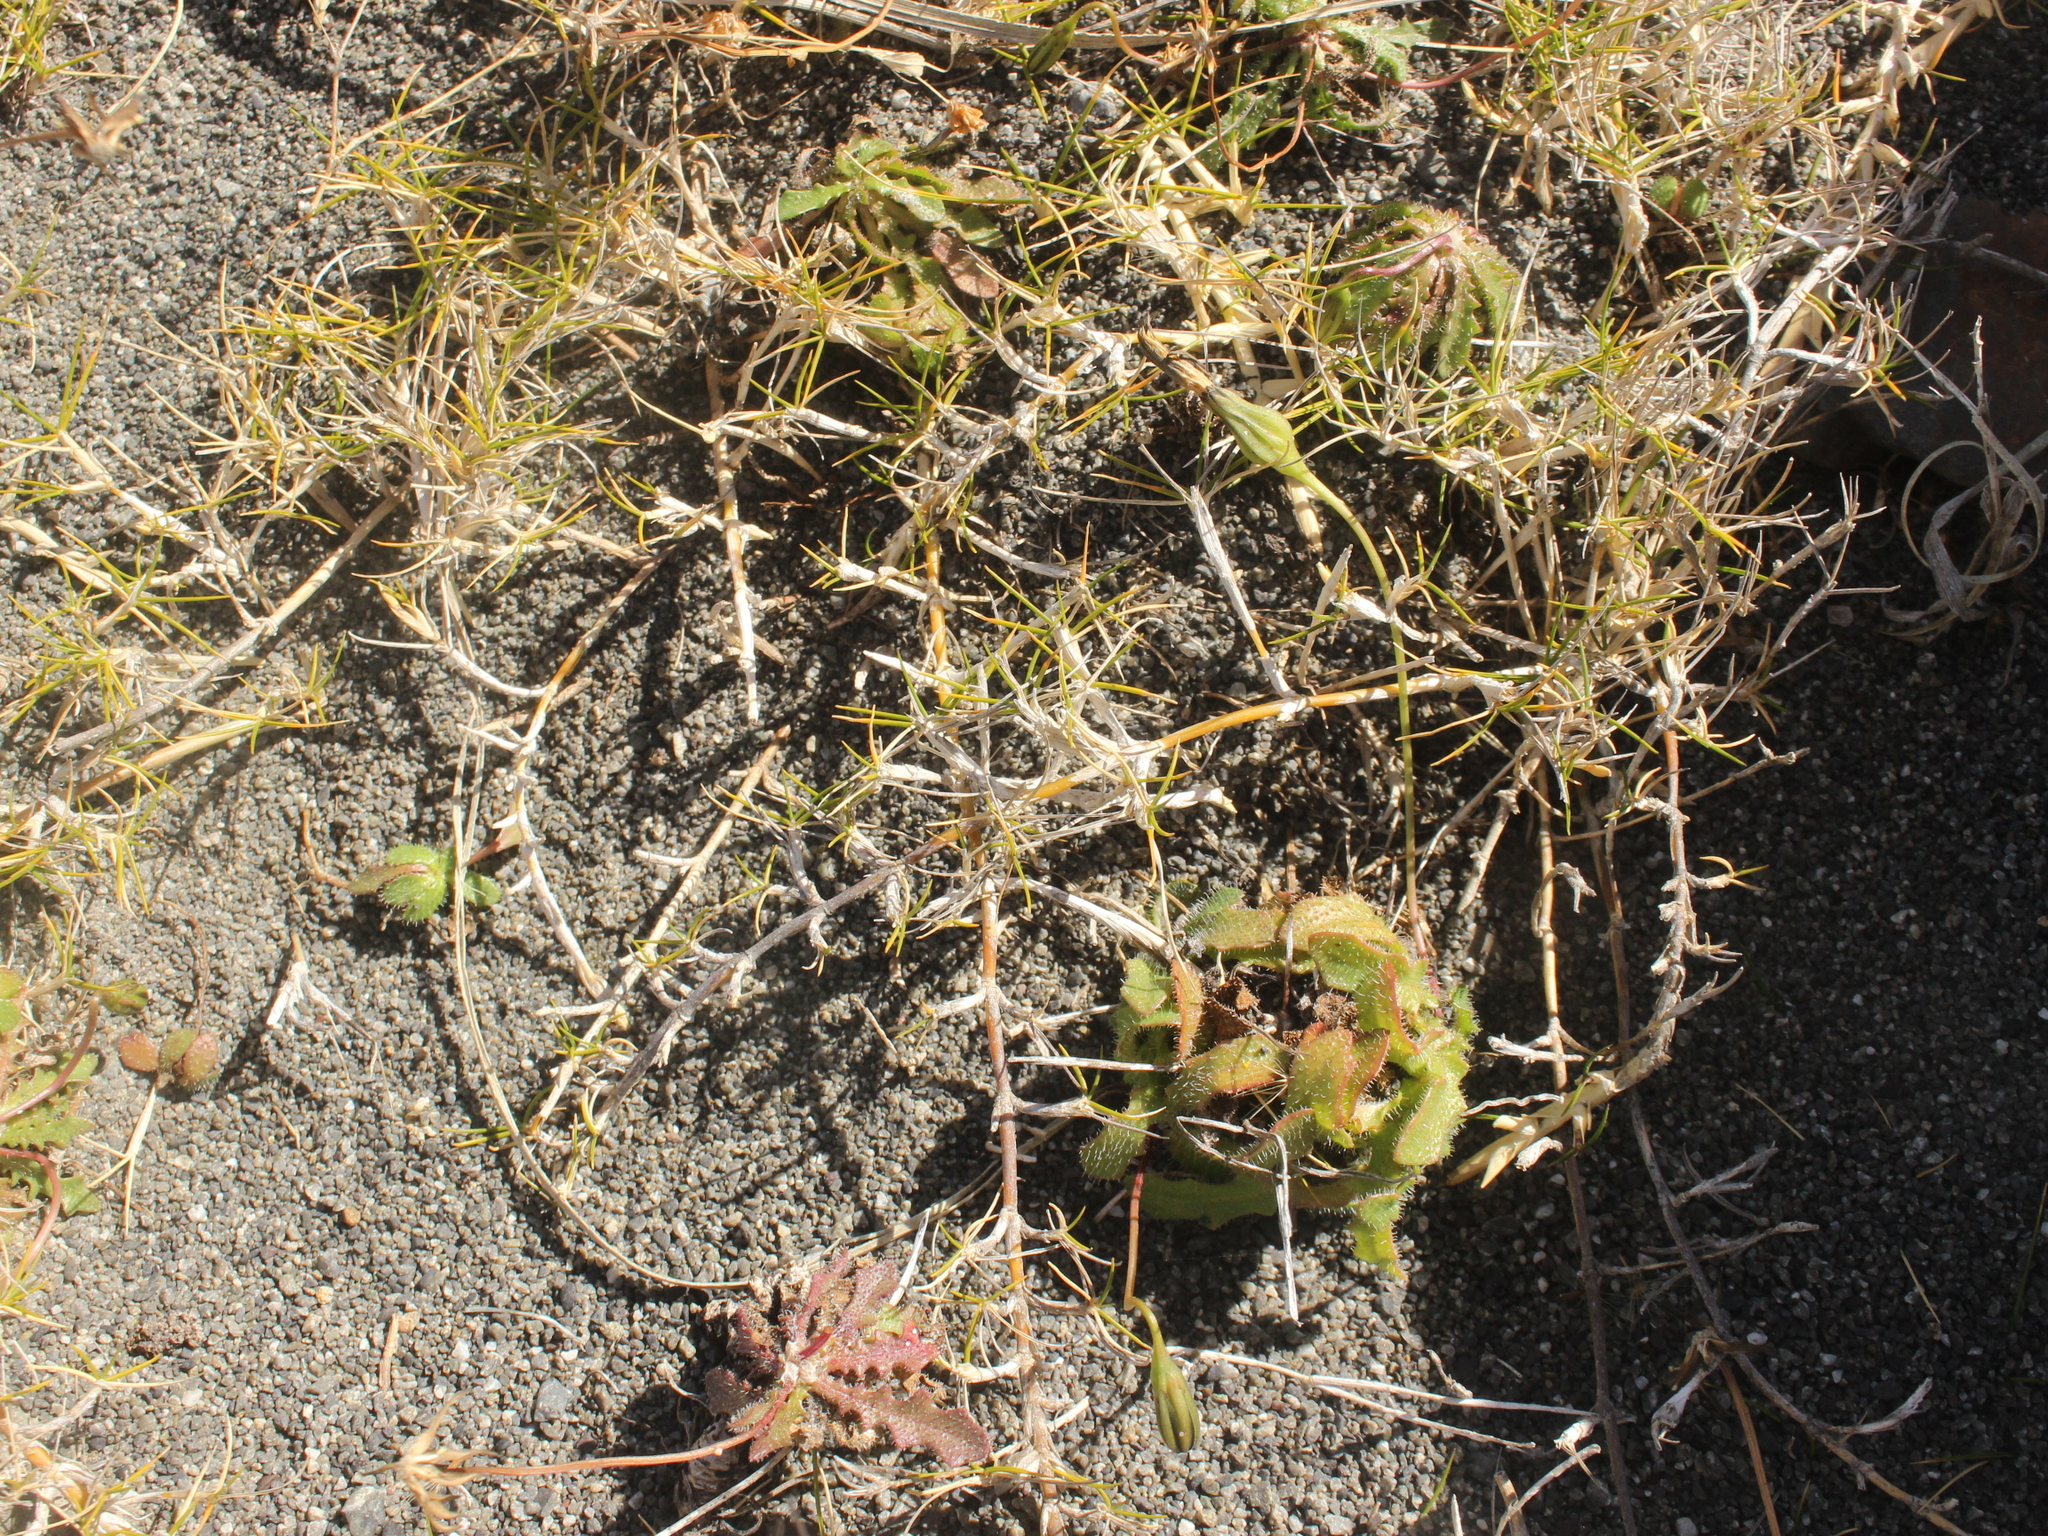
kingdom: Plantae
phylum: Tracheophyta
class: Liliopsida
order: Poales
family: Poaceae
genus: Zoysia
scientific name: Zoysia minima
